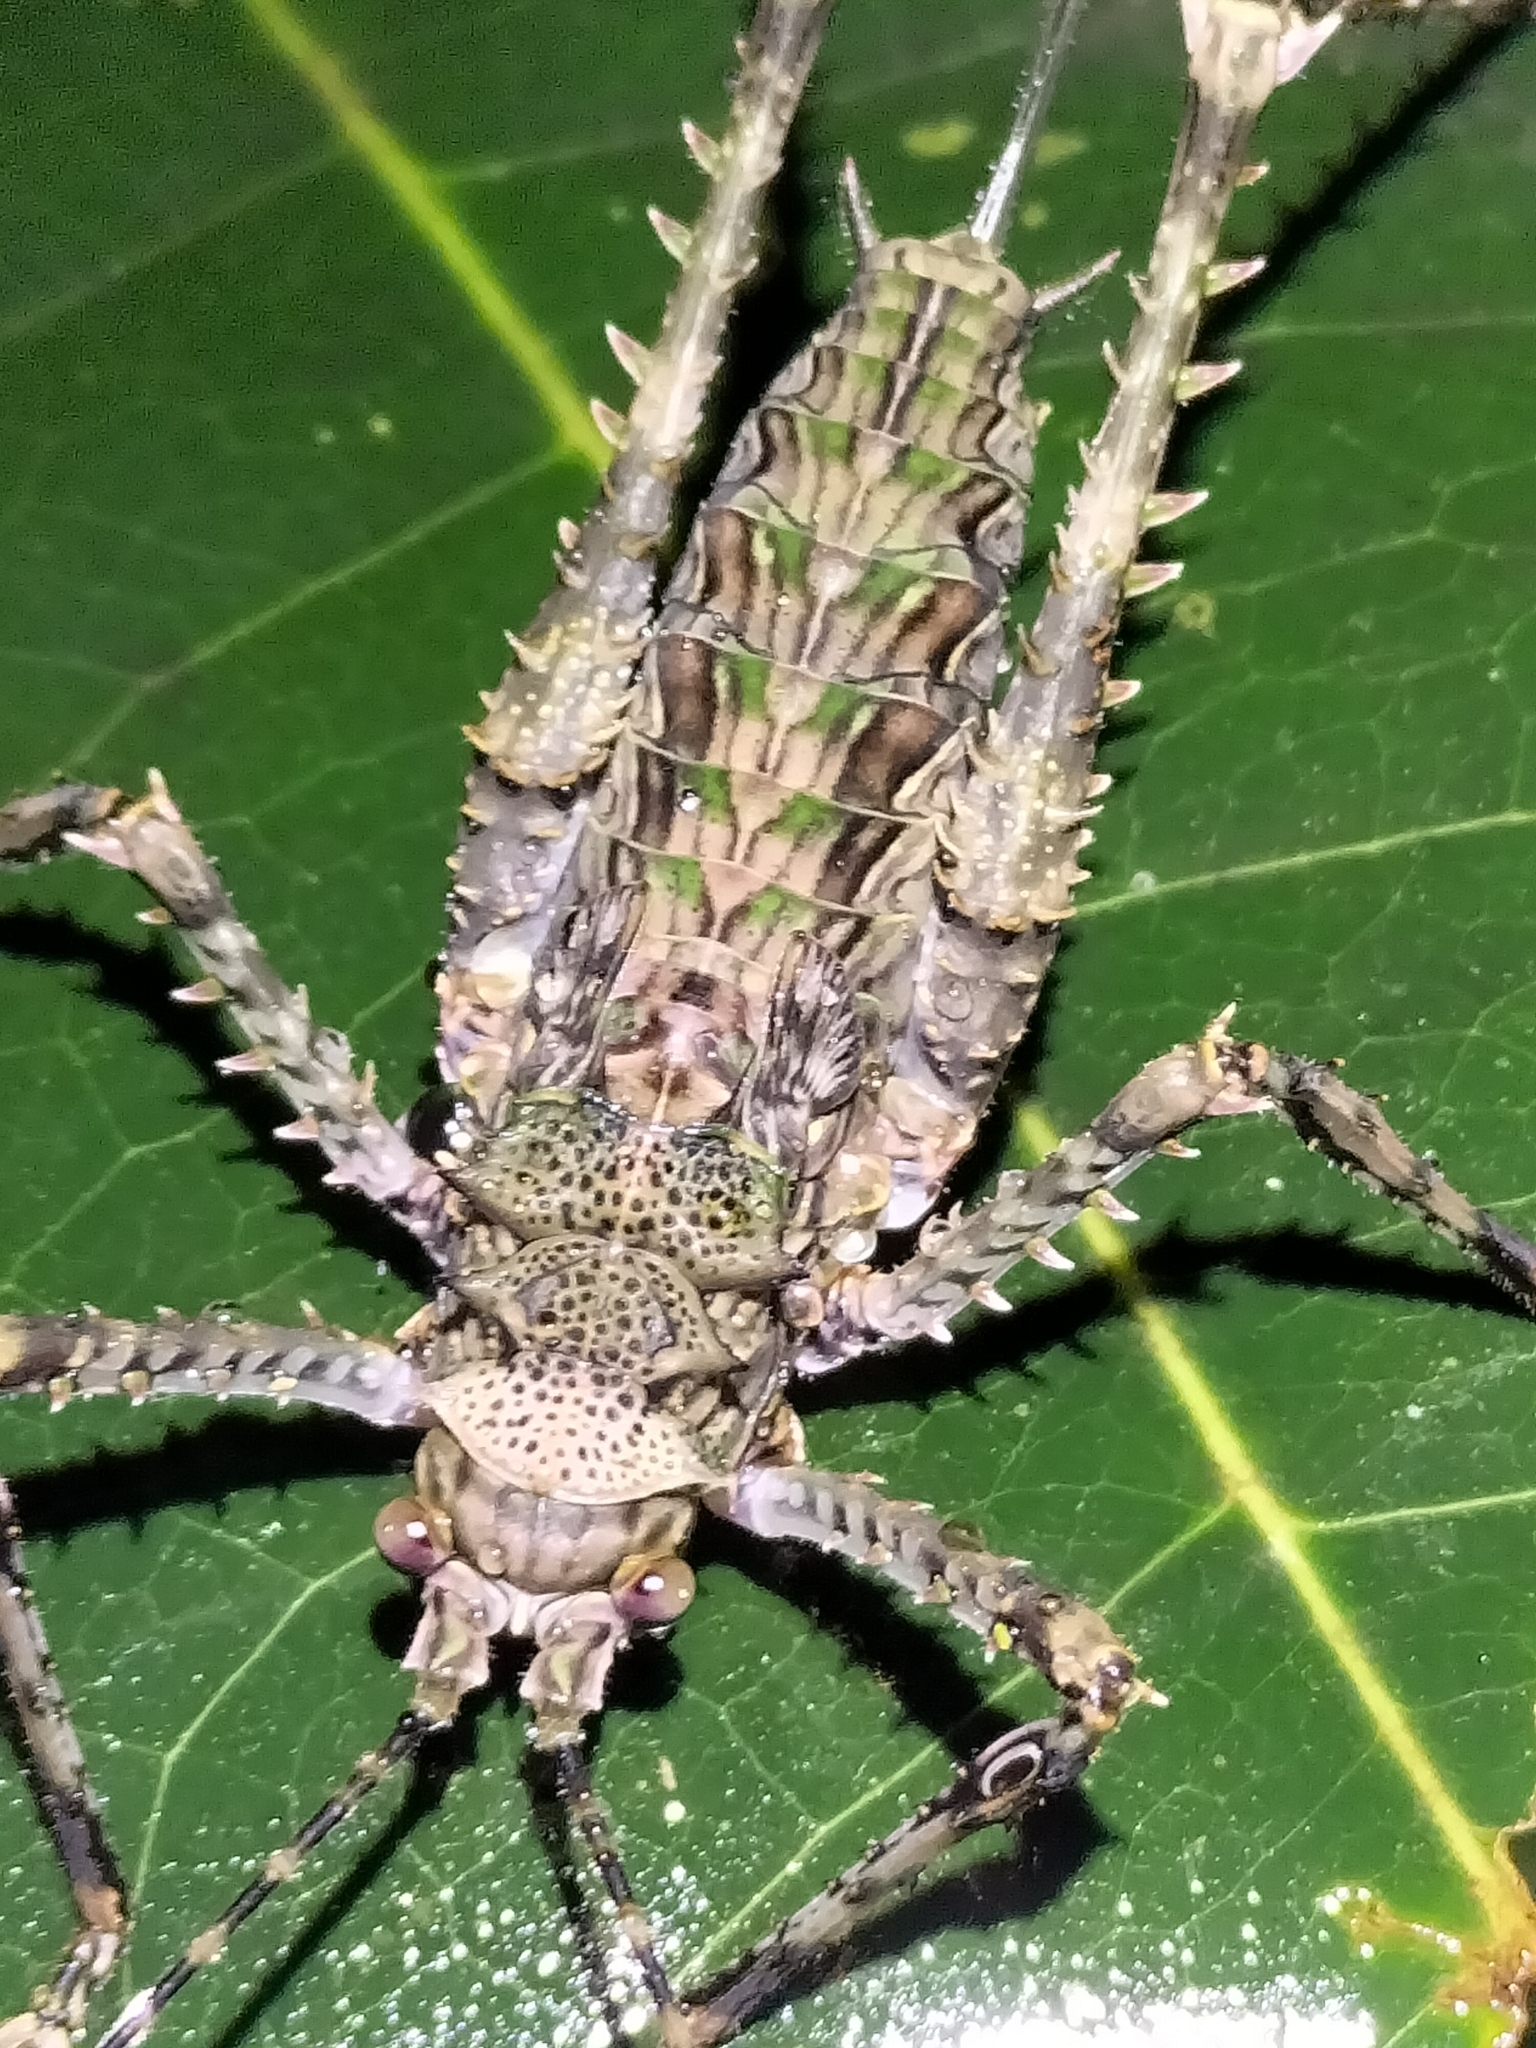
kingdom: Animalia
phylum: Arthropoda
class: Insecta
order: Orthoptera
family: Tettigoniidae
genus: Phricta
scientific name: Phricta spinosa
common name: Giant spiny forest katydid
